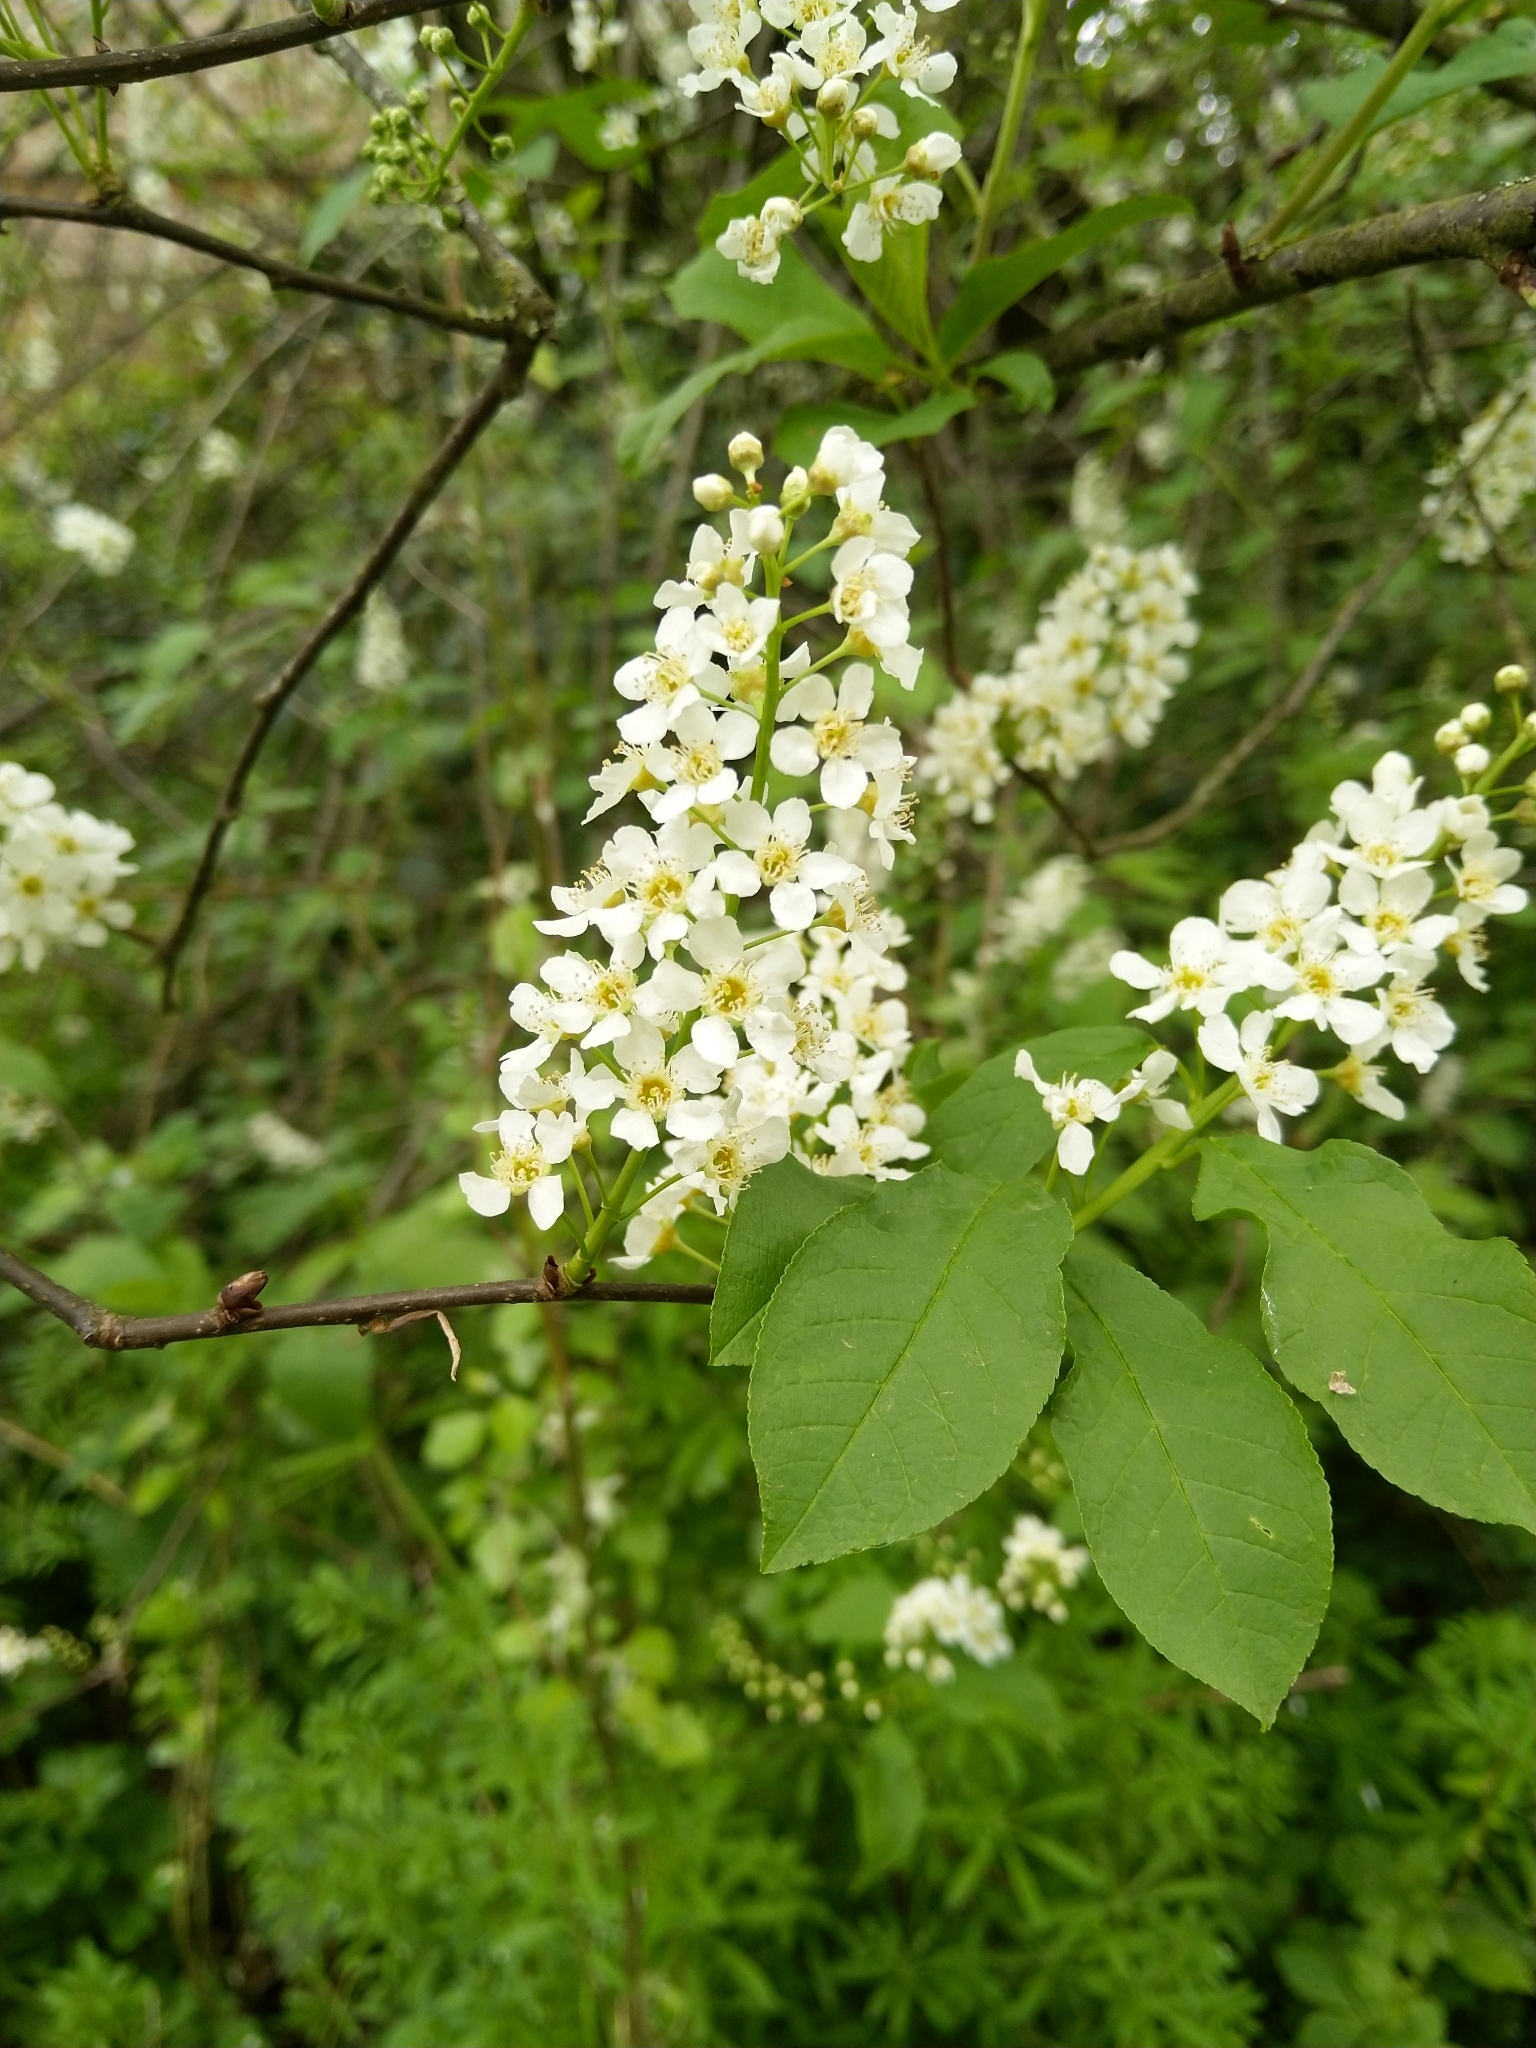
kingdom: Plantae
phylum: Tracheophyta
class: Magnoliopsida
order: Rosales
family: Rosaceae
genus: Prunus
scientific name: Prunus padus
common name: Bird cherry
